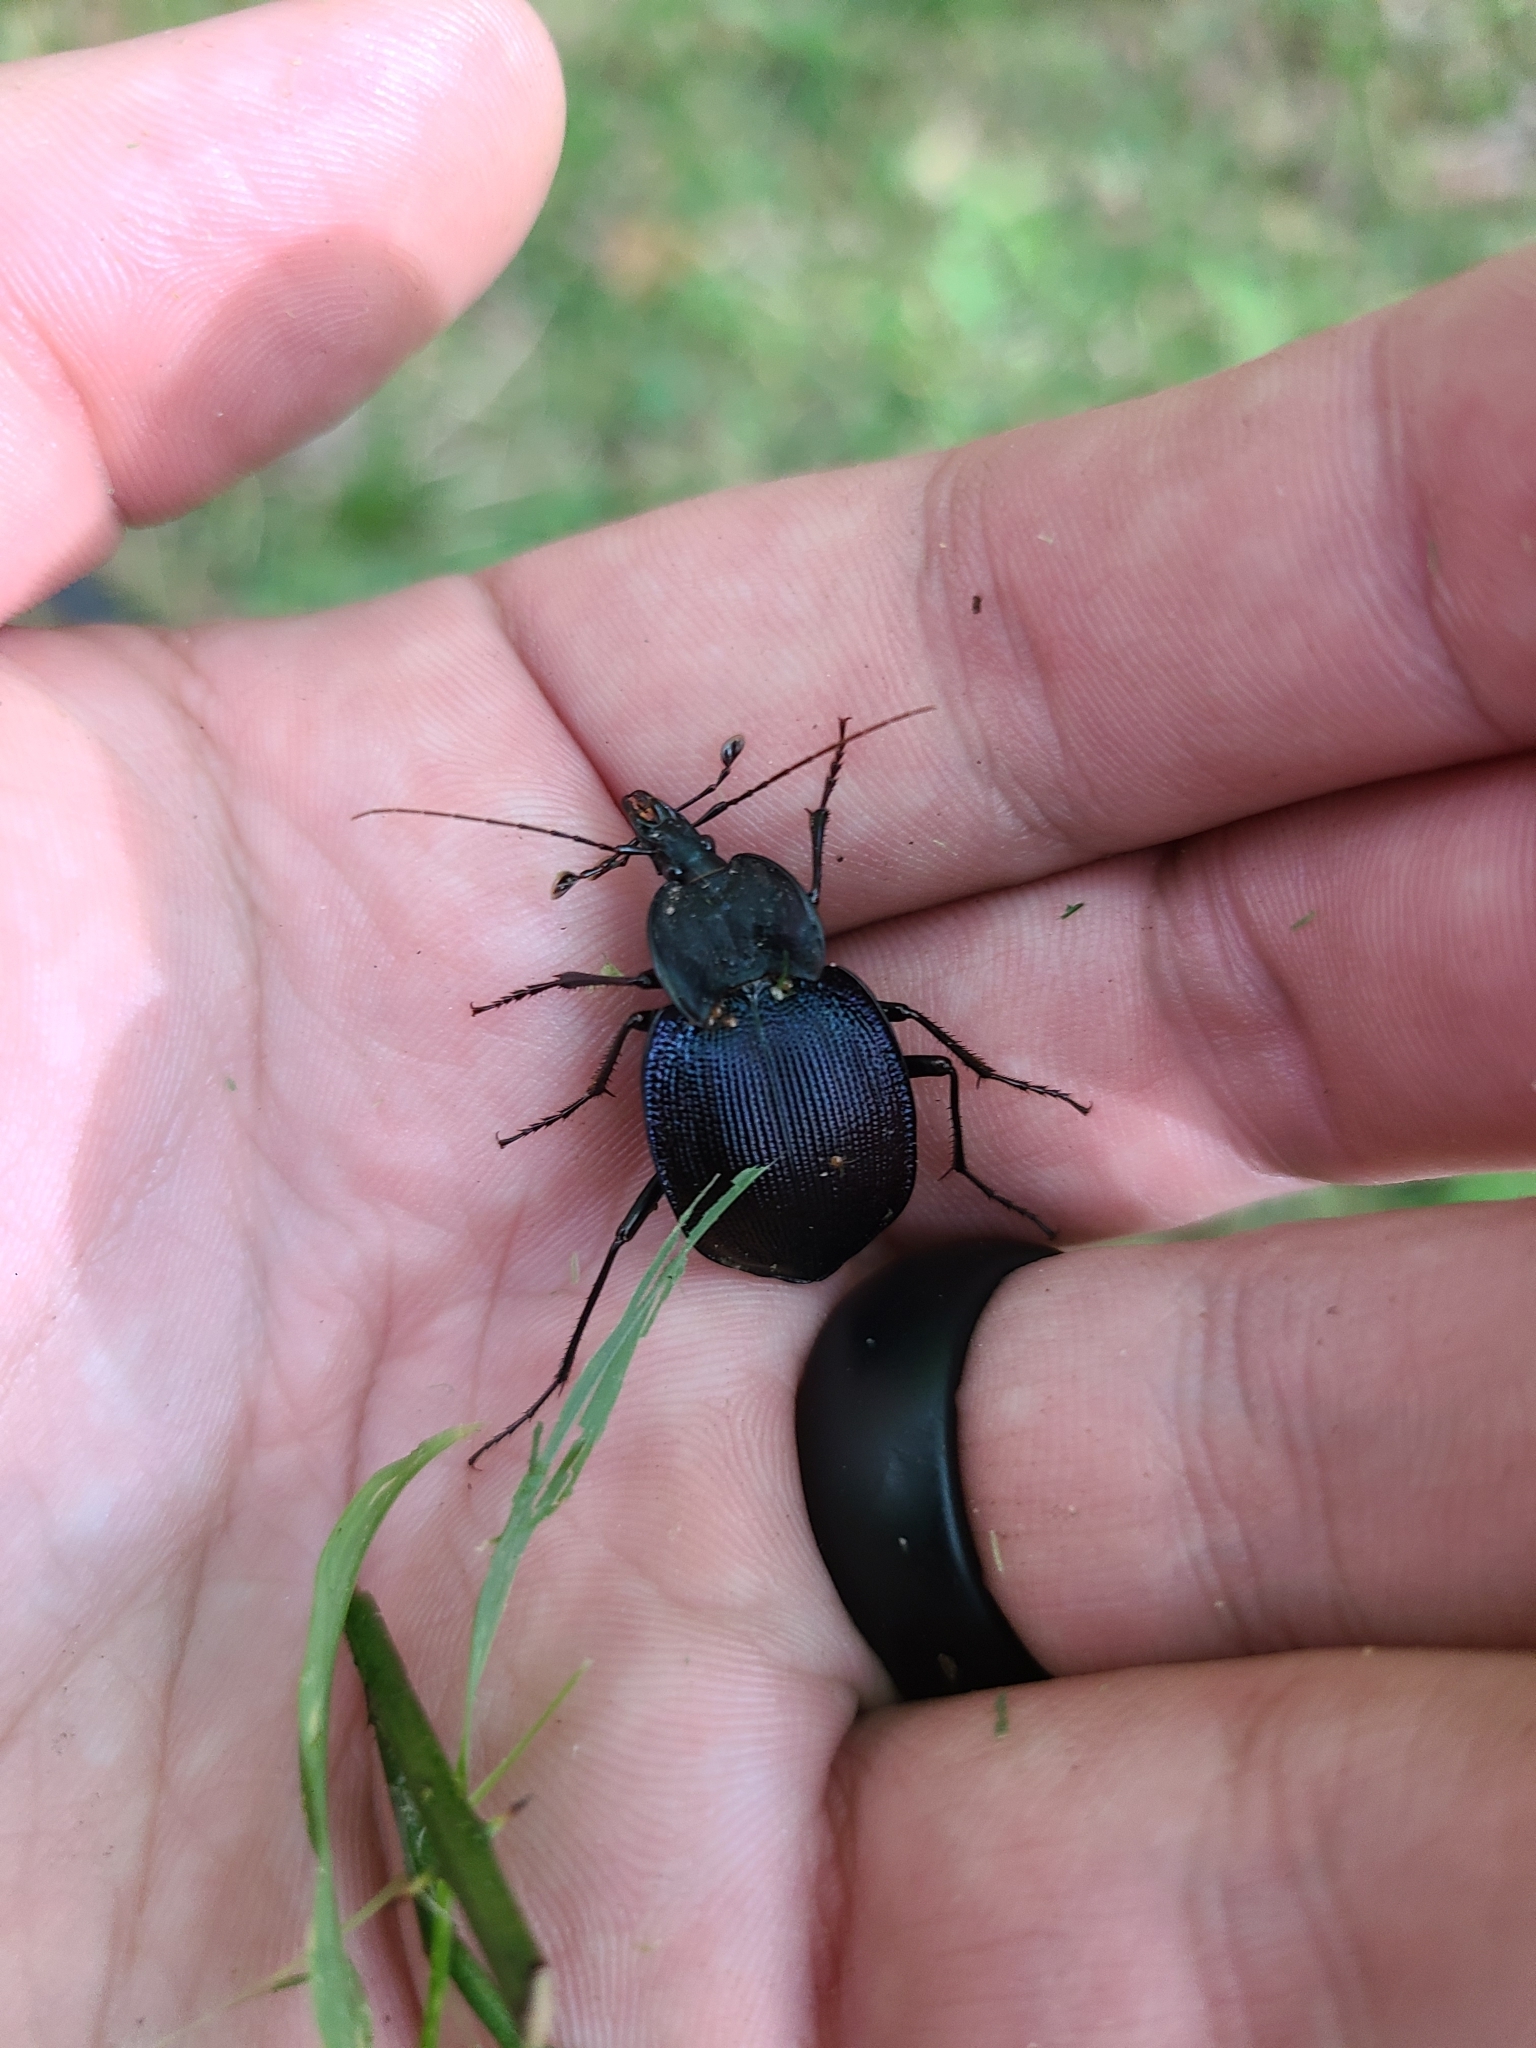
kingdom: Animalia
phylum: Arthropoda
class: Insecta
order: Coleoptera
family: Carabidae
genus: Scaphinotus
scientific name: Scaphinotus unicolor
